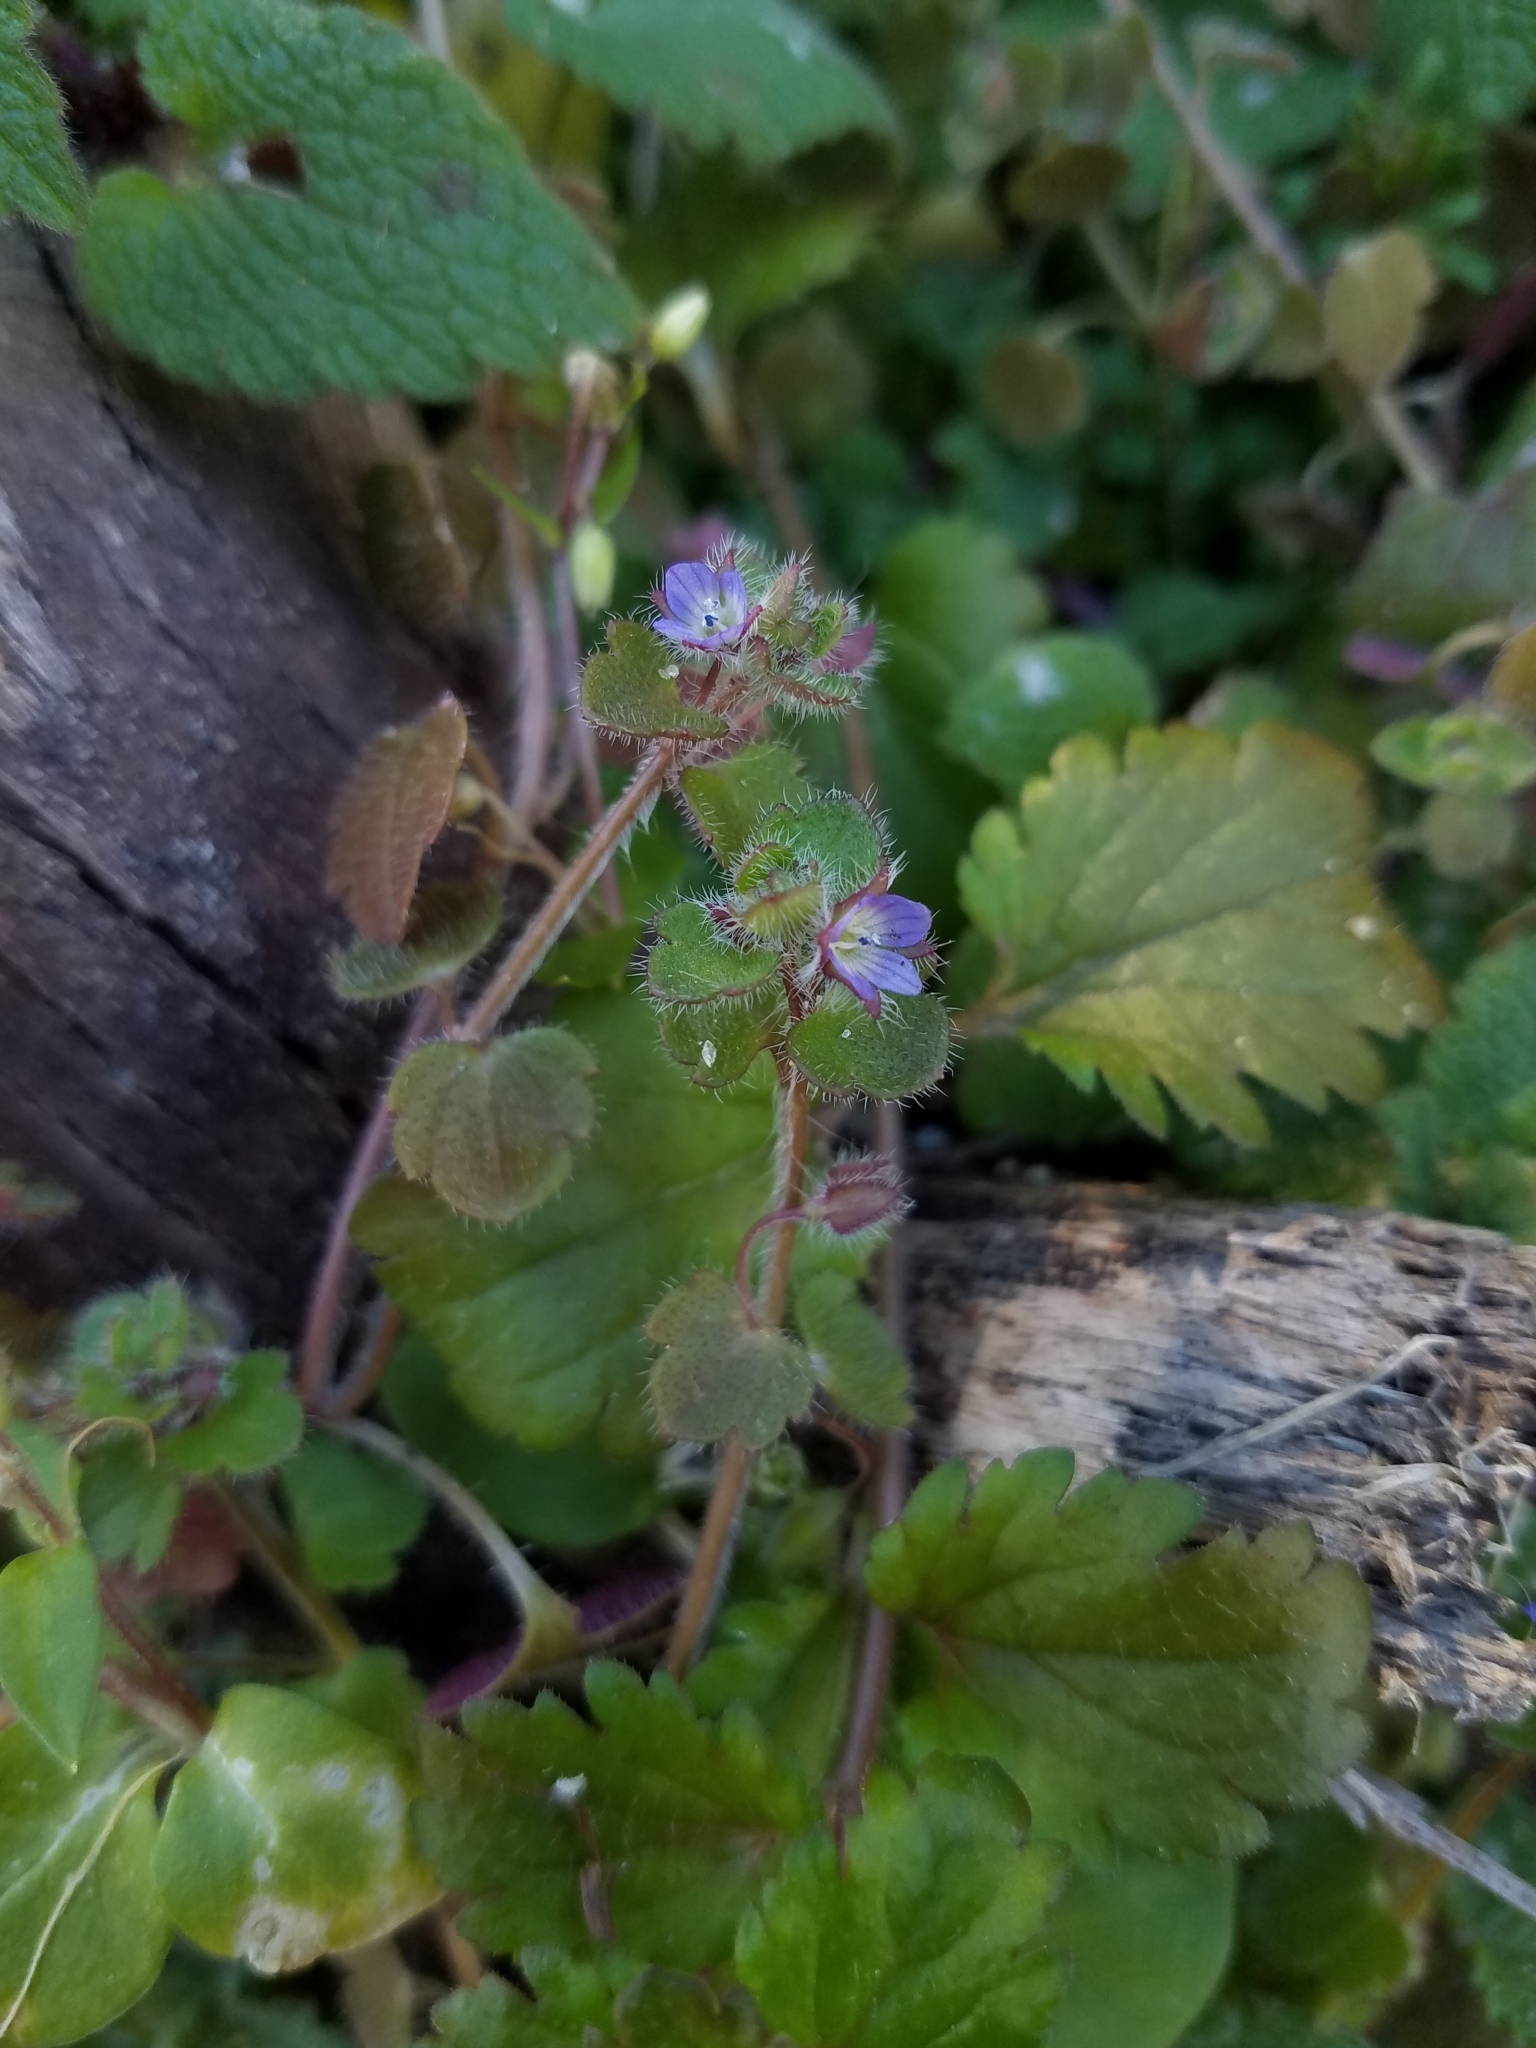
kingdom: Plantae
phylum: Tracheophyta
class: Magnoliopsida
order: Lamiales
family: Plantaginaceae
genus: Veronica
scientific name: Veronica hederifolia
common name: Ivy-leaved speedwell
